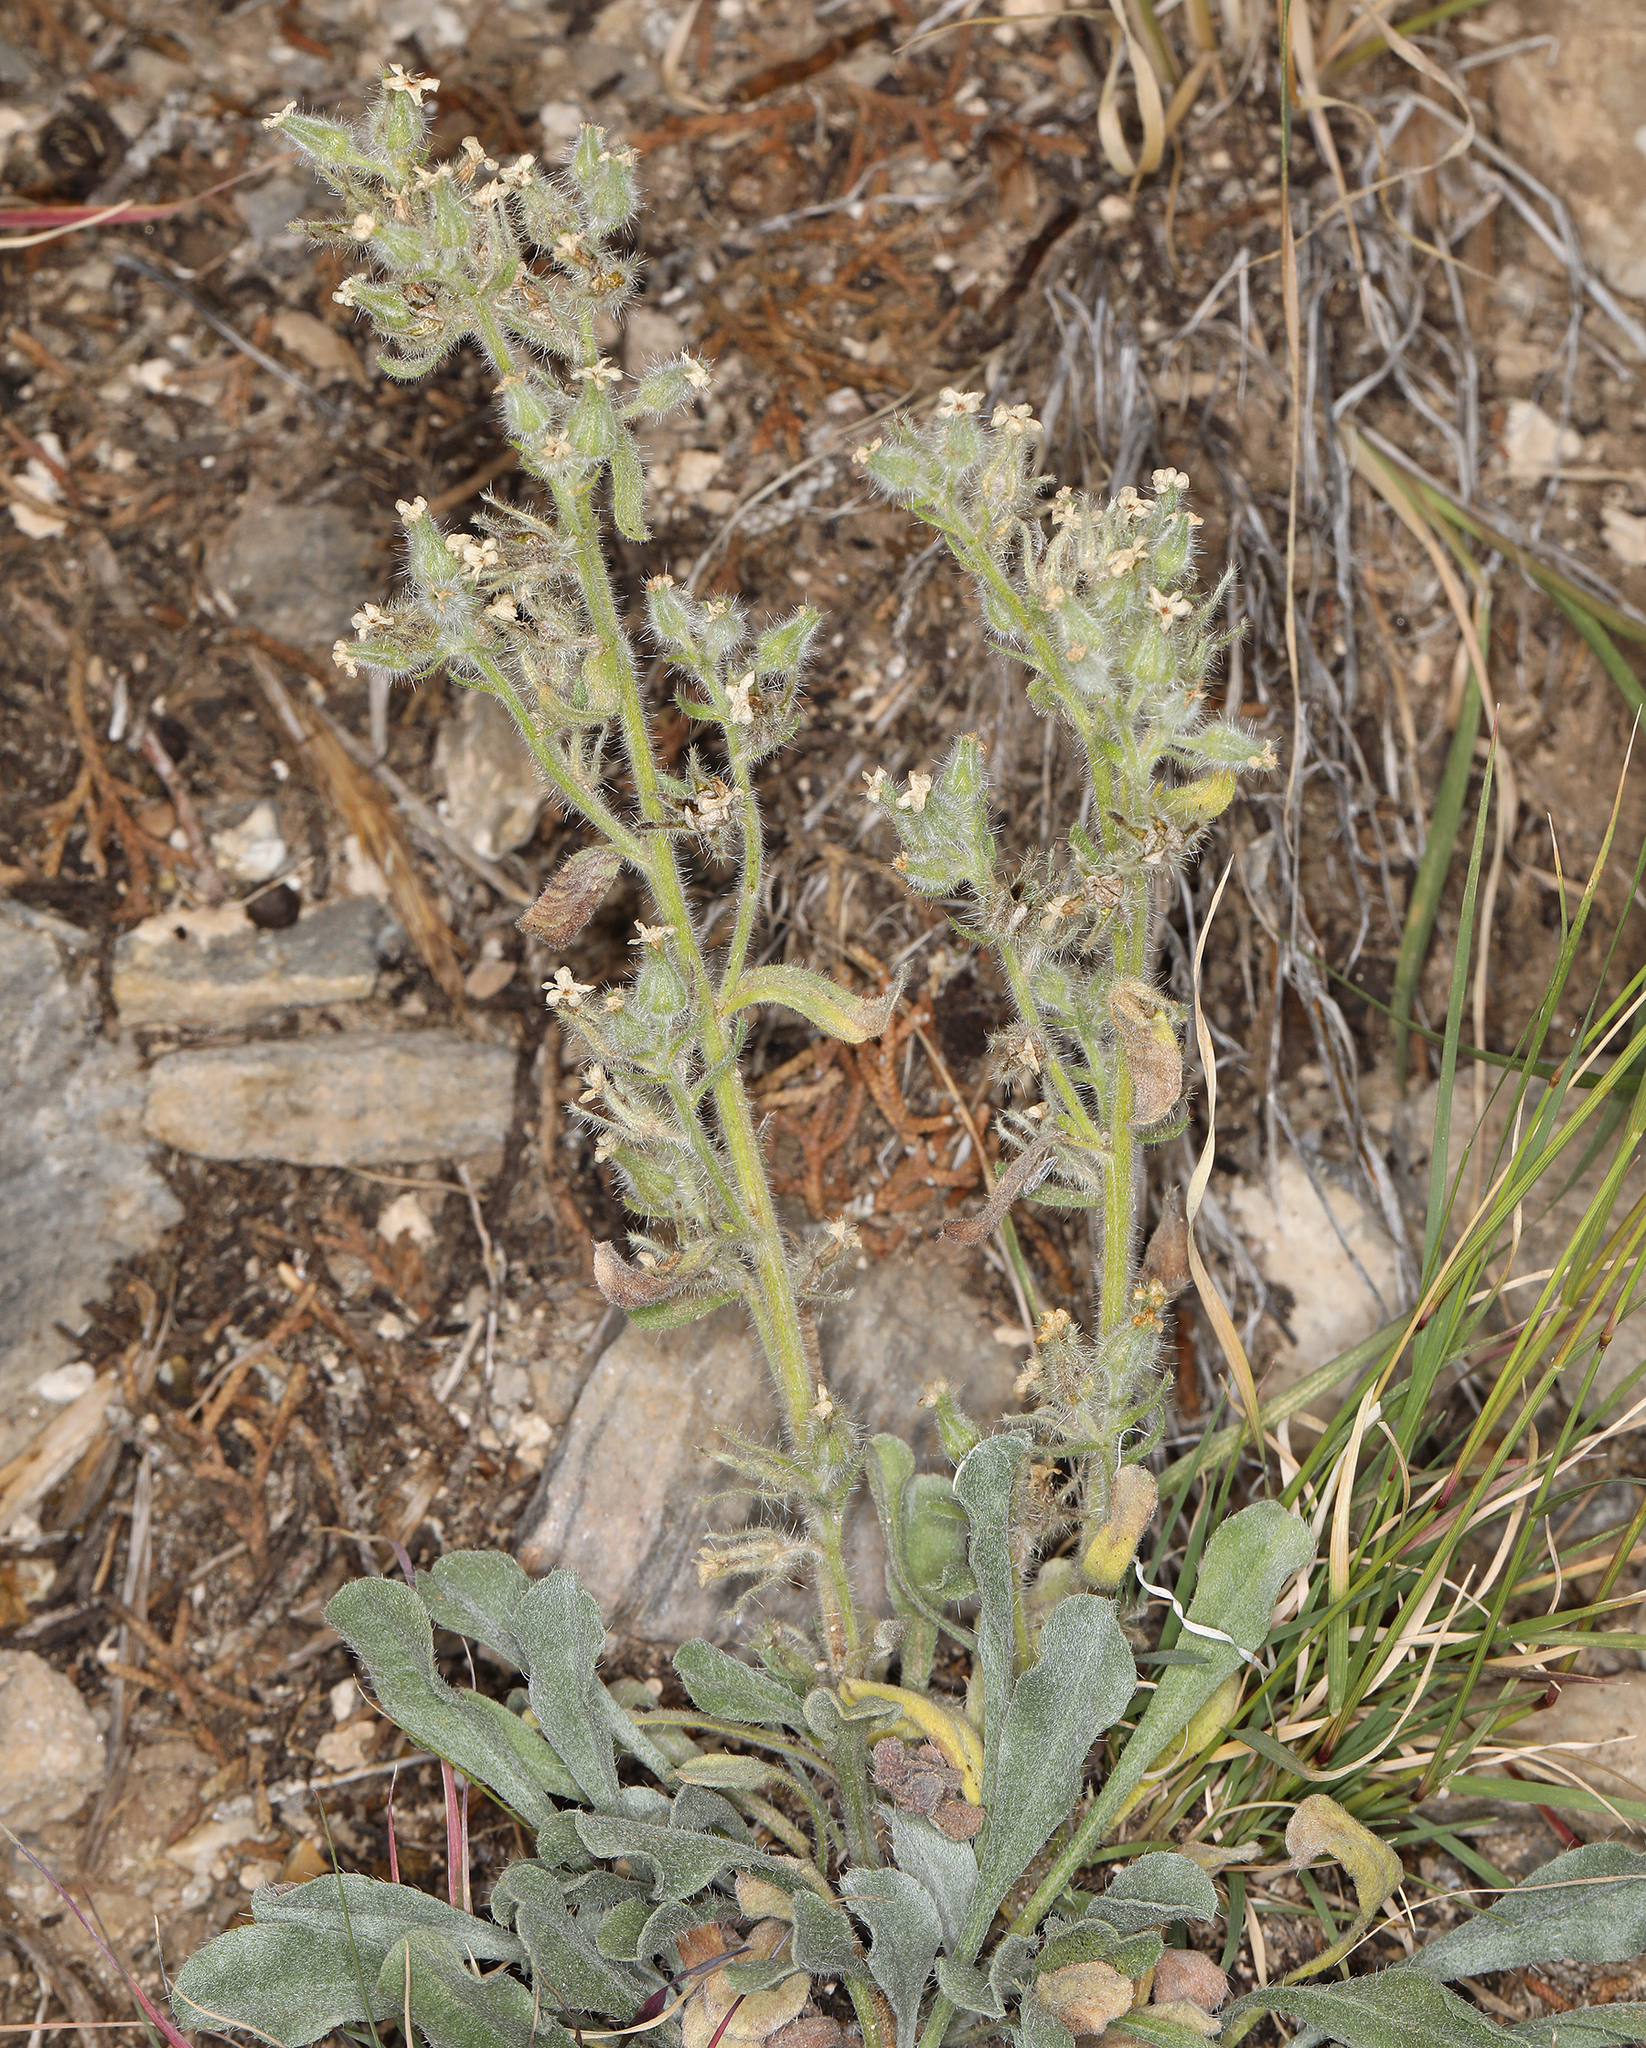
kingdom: Plantae
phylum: Tracheophyta
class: Magnoliopsida
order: Boraginales
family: Boraginaceae
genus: Oreocarya
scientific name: Oreocarya tumulosa
